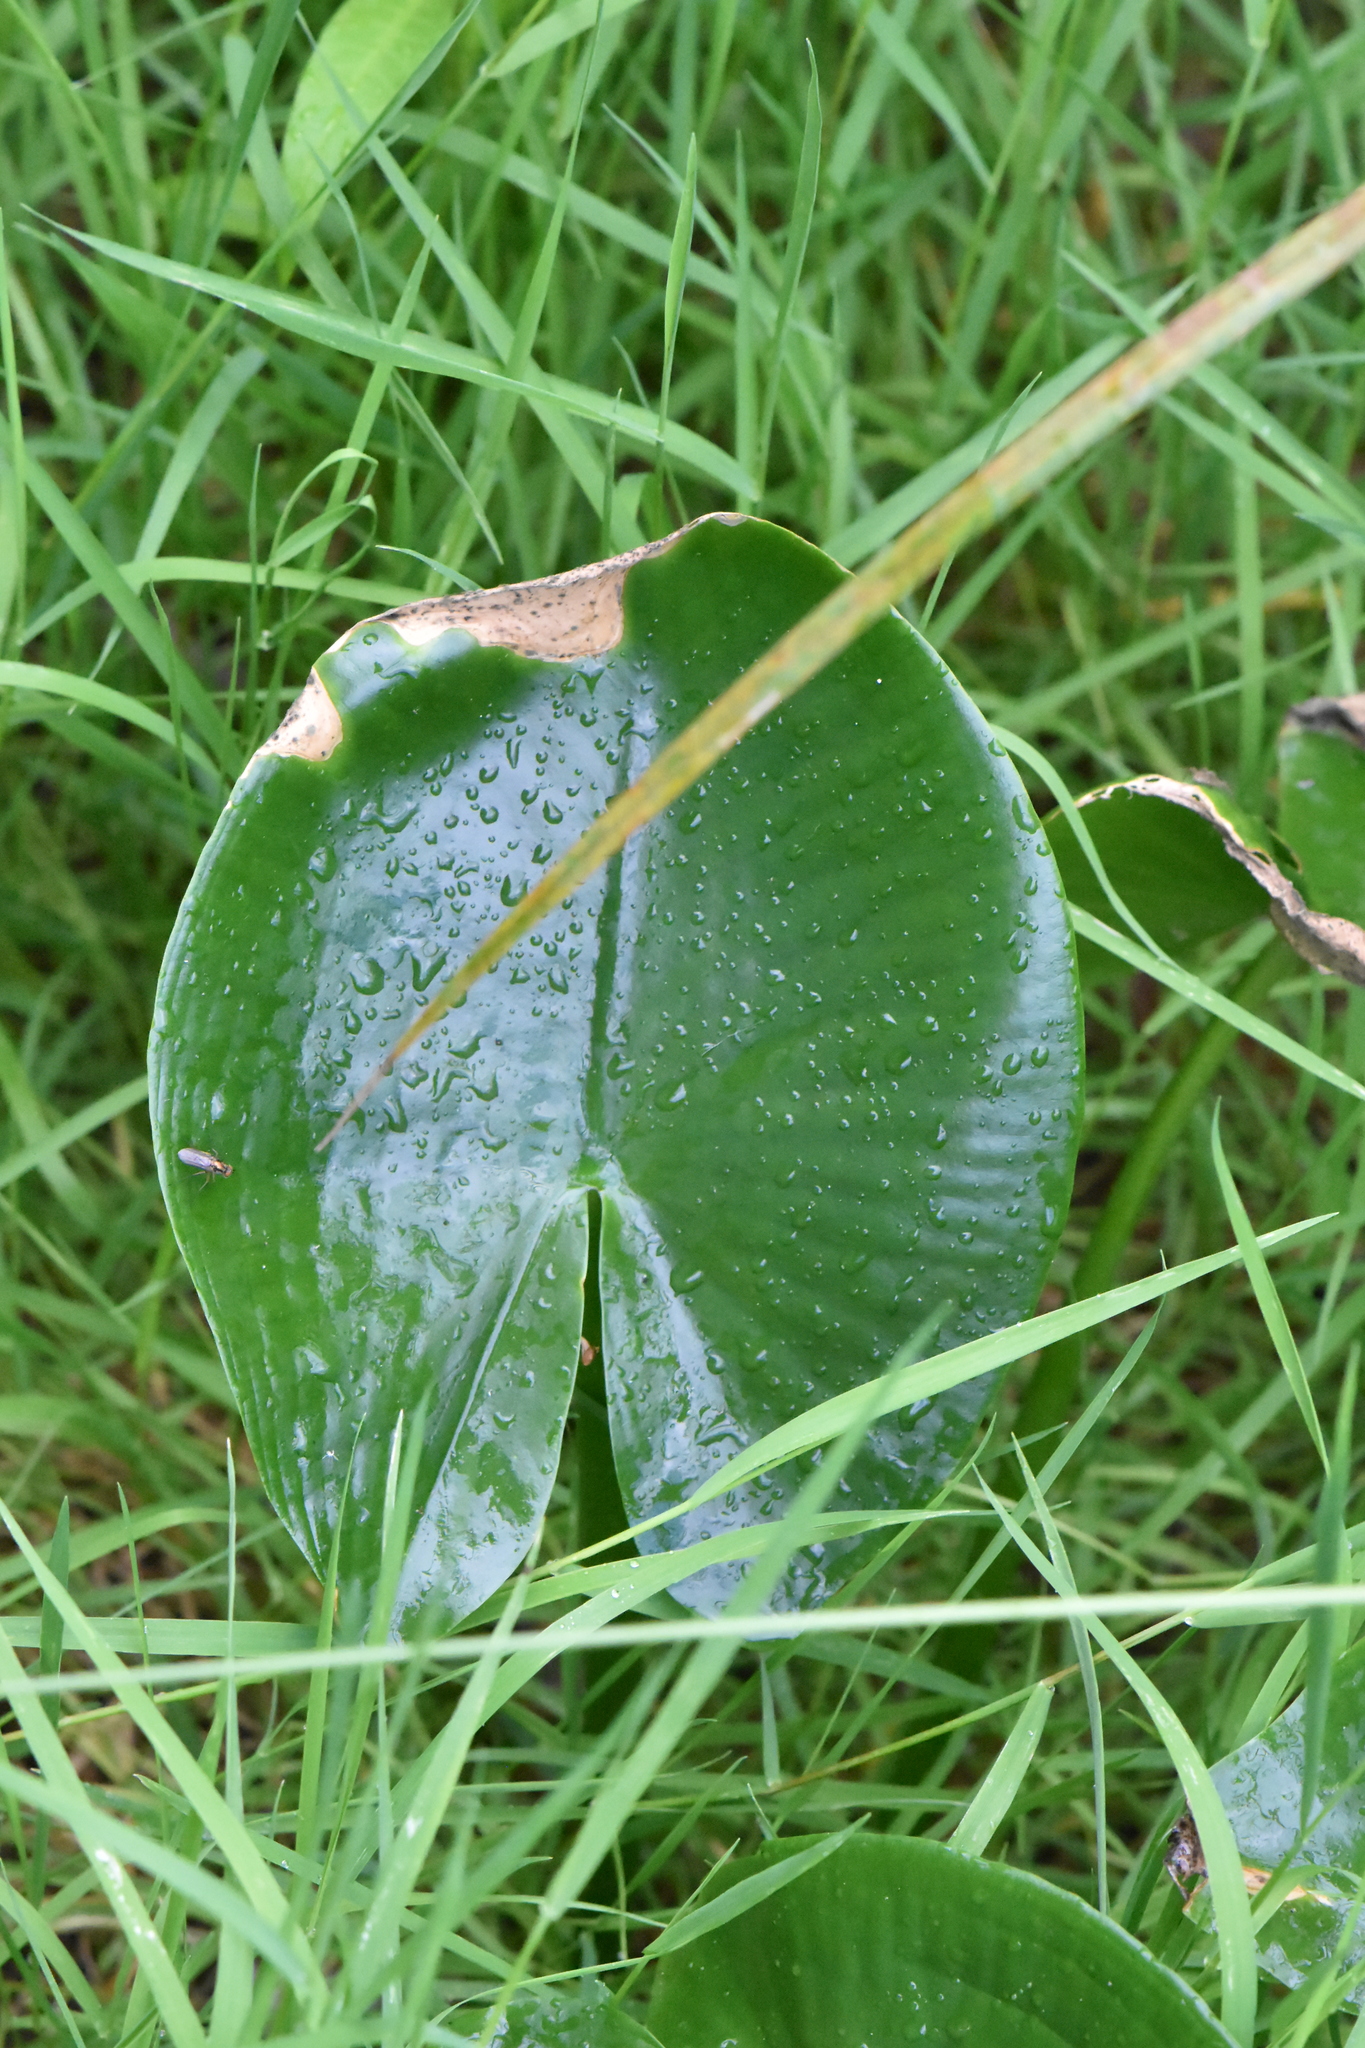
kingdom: Plantae
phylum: Tracheophyta
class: Liliopsida
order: Alismatales
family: Araceae
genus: Calla
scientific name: Calla palustris
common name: Bog arum
